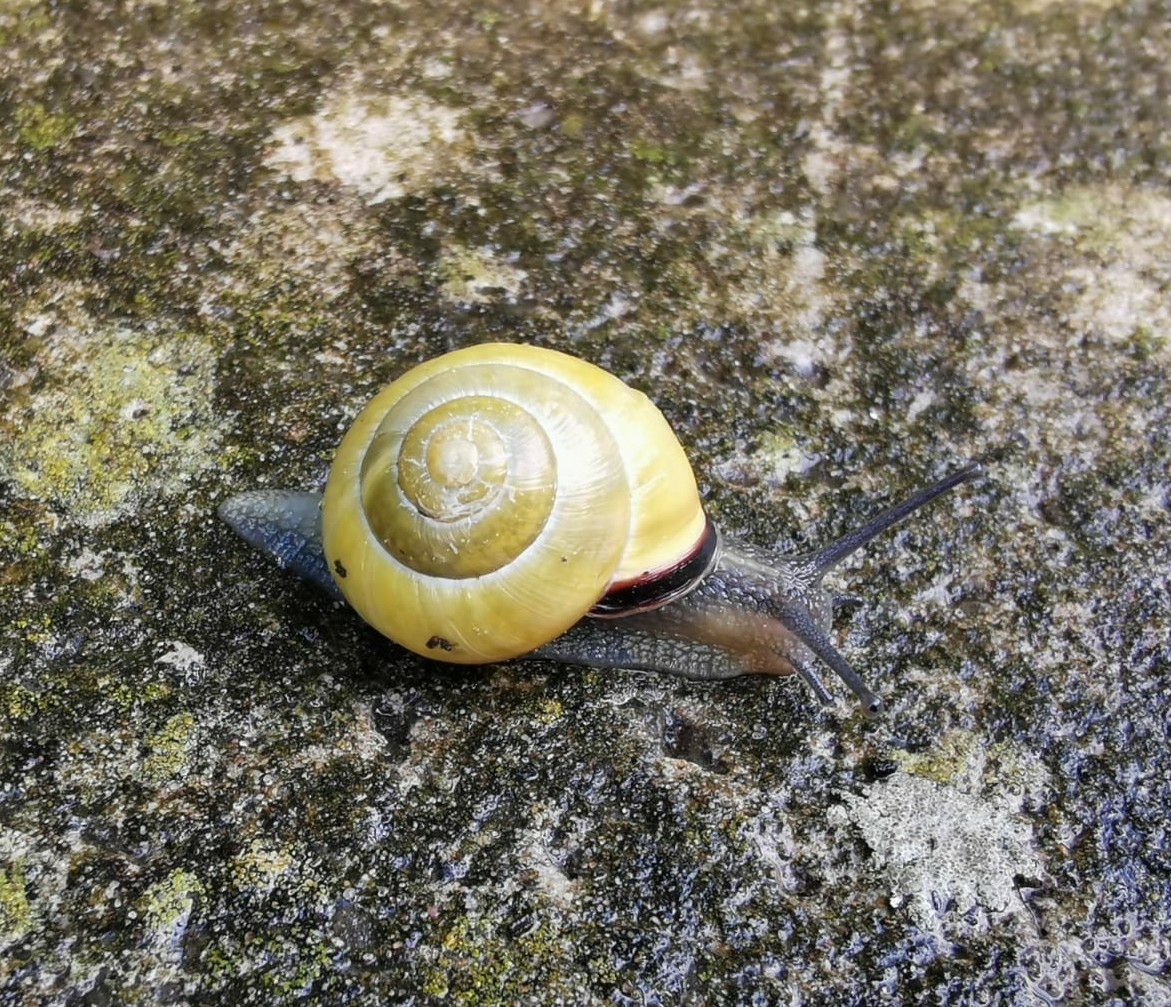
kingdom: Animalia
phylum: Mollusca
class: Gastropoda
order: Stylommatophora
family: Helicidae
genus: Cepaea
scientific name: Cepaea nemoralis
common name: Grovesnail
